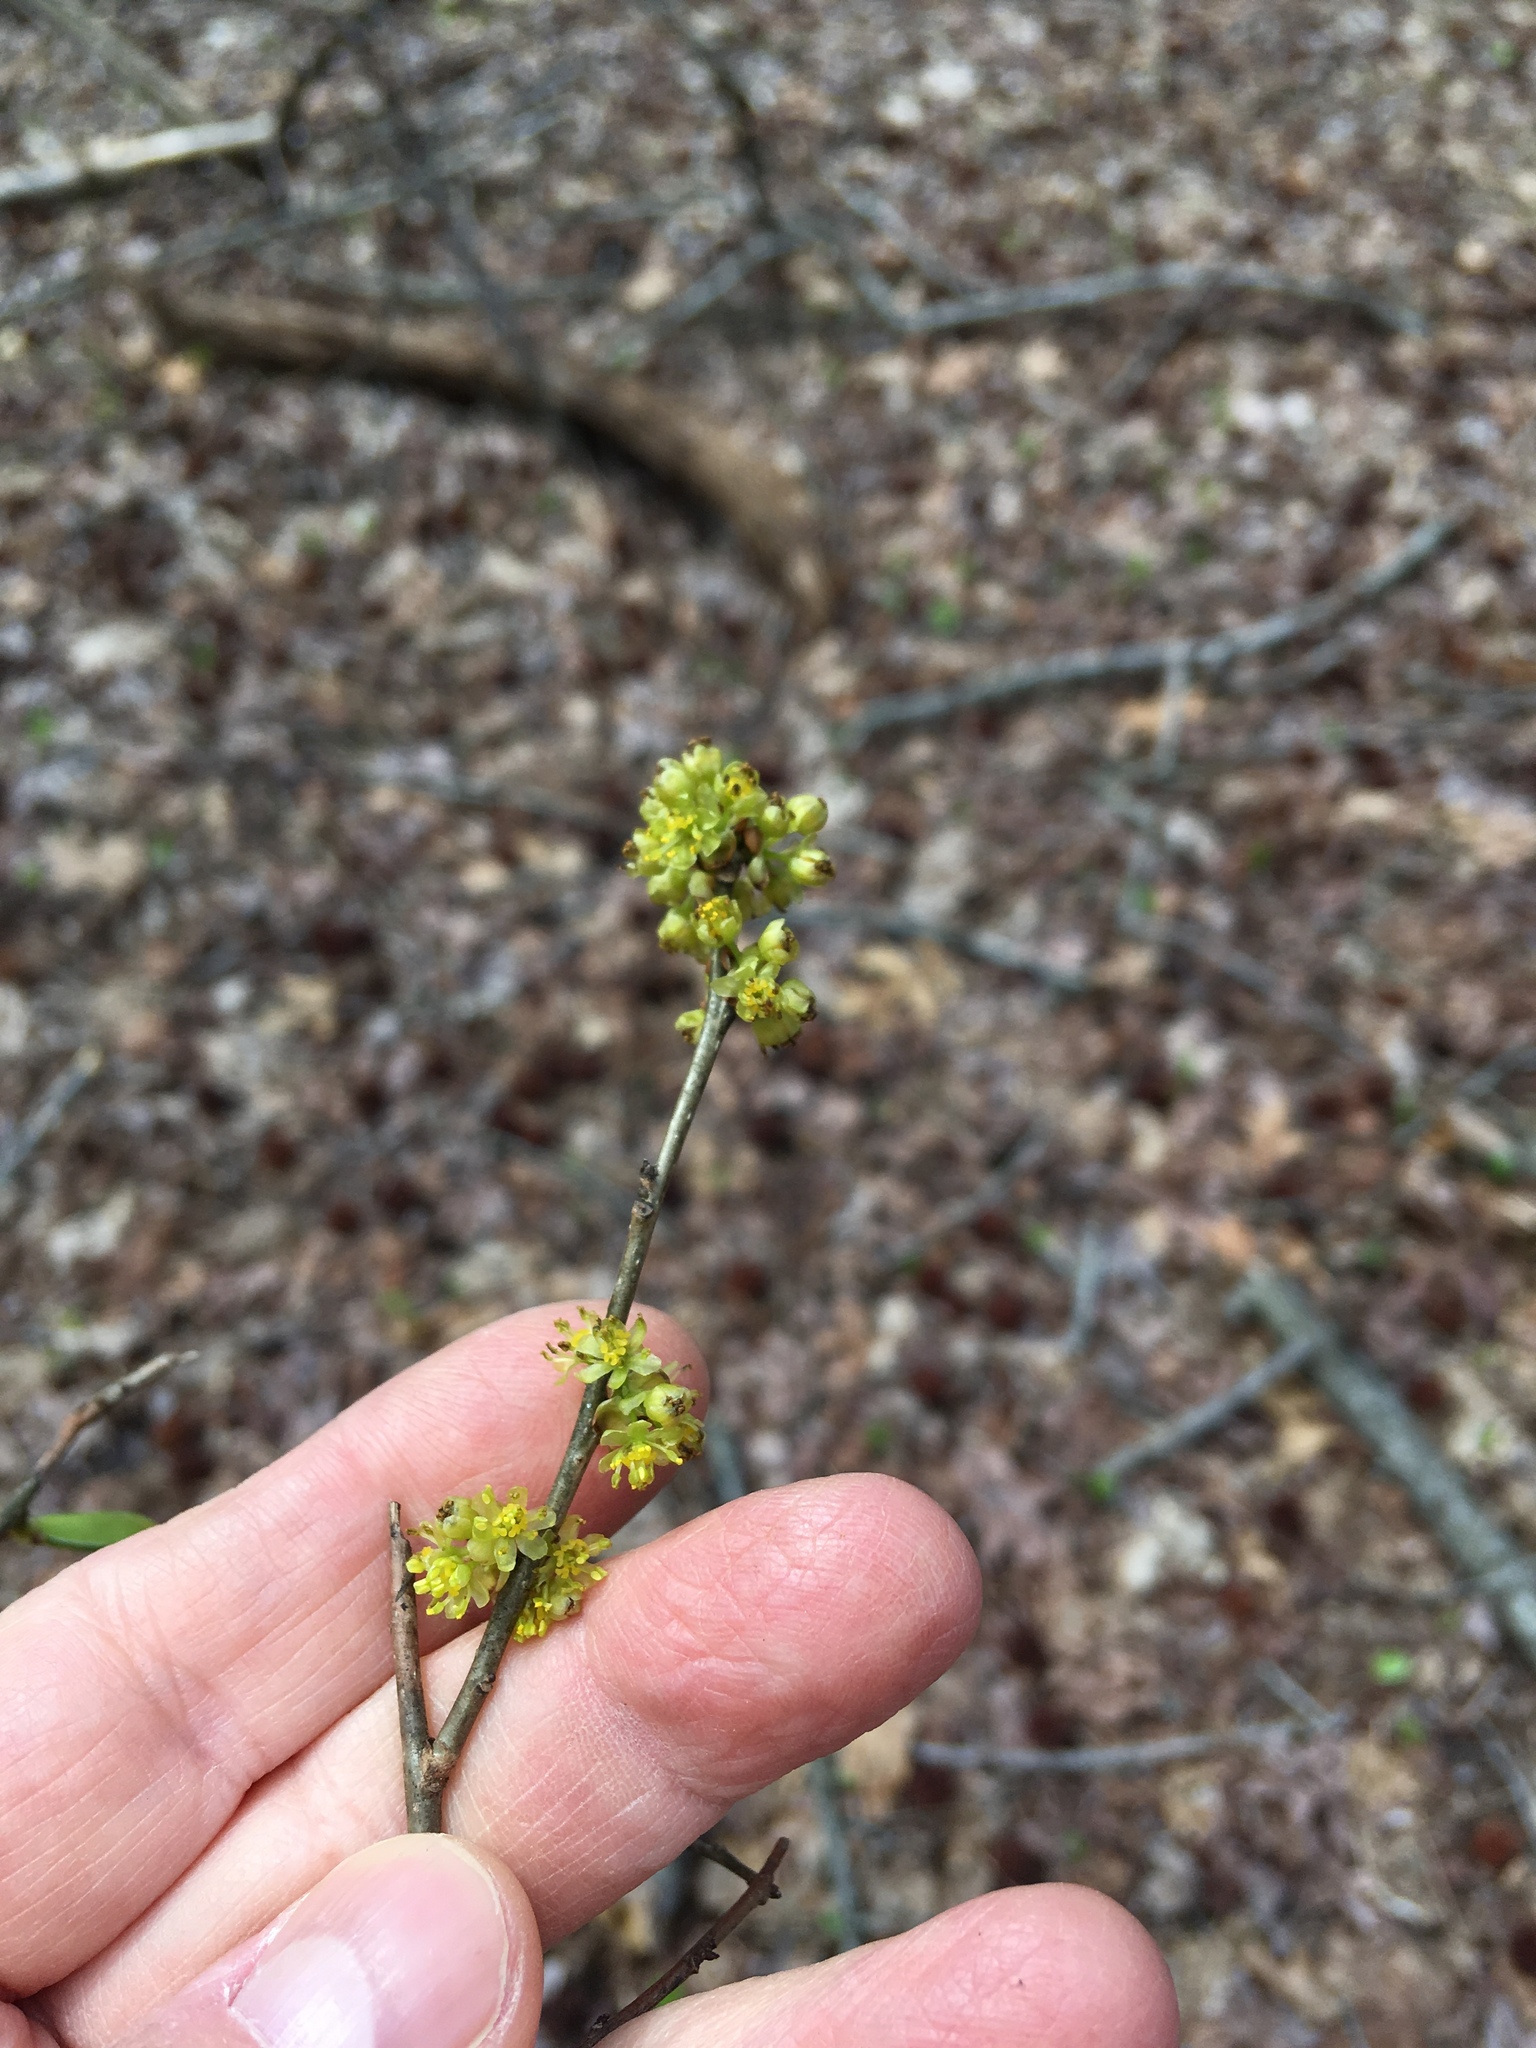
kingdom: Plantae
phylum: Tracheophyta
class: Magnoliopsida
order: Laurales
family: Lauraceae
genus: Lindera
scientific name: Lindera benzoin
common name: Spicebush
